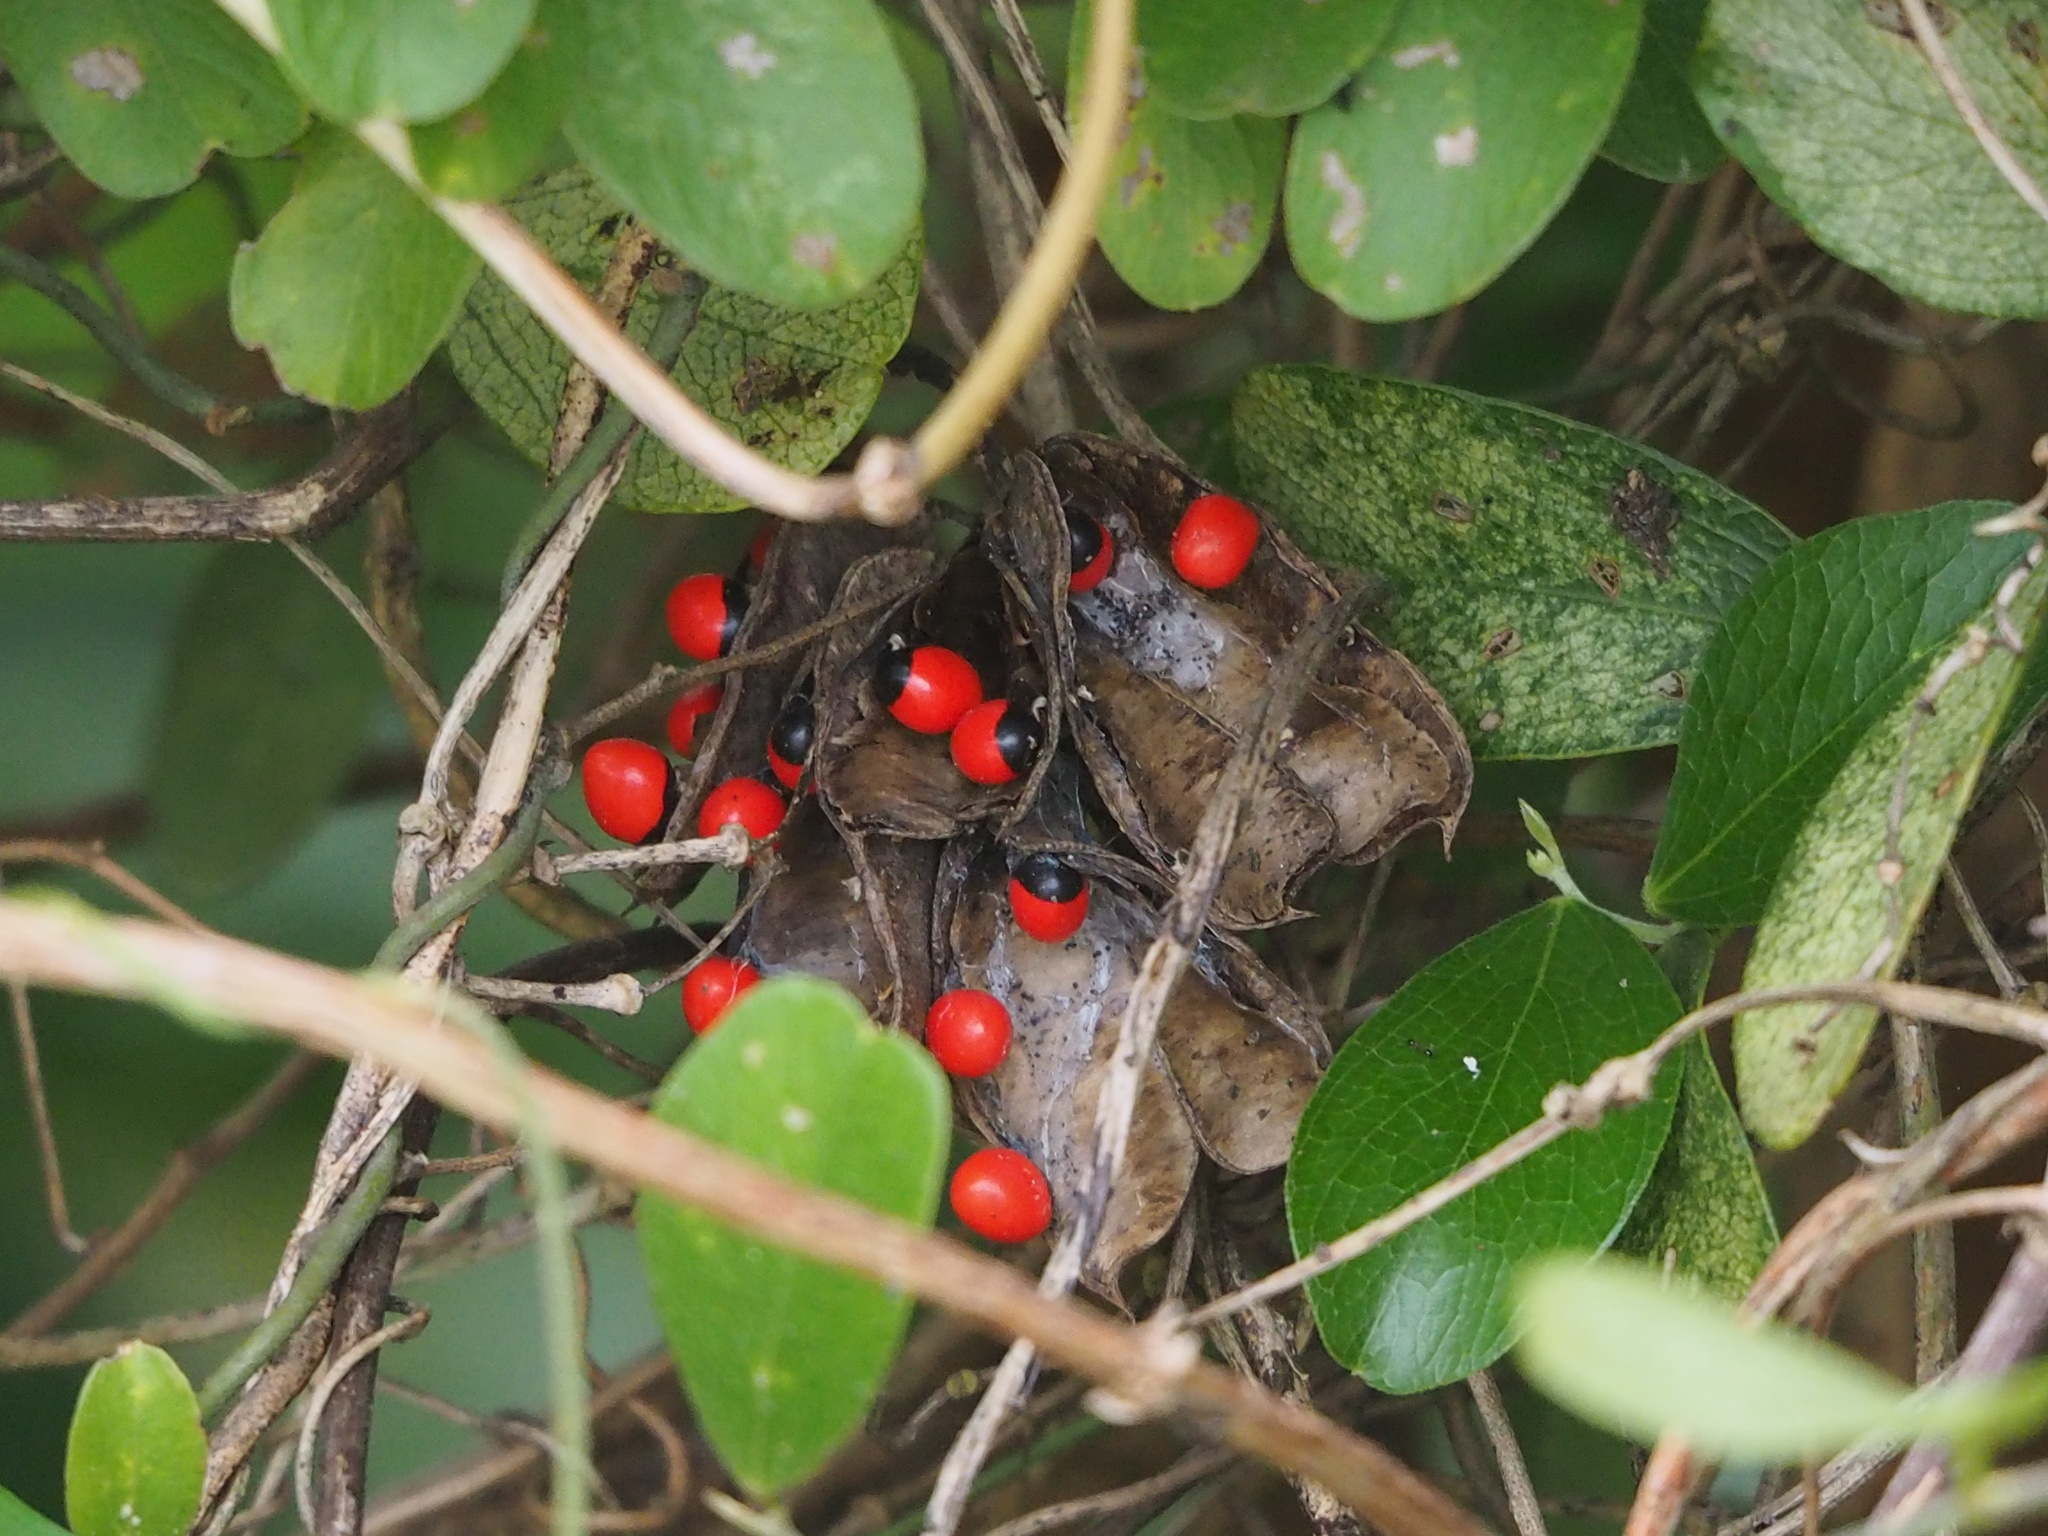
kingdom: Plantae
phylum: Tracheophyta
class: Magnoliopsida
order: Fabales
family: Fabaceae
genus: Abrus
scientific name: Abrus precatorius
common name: Rosarypea
